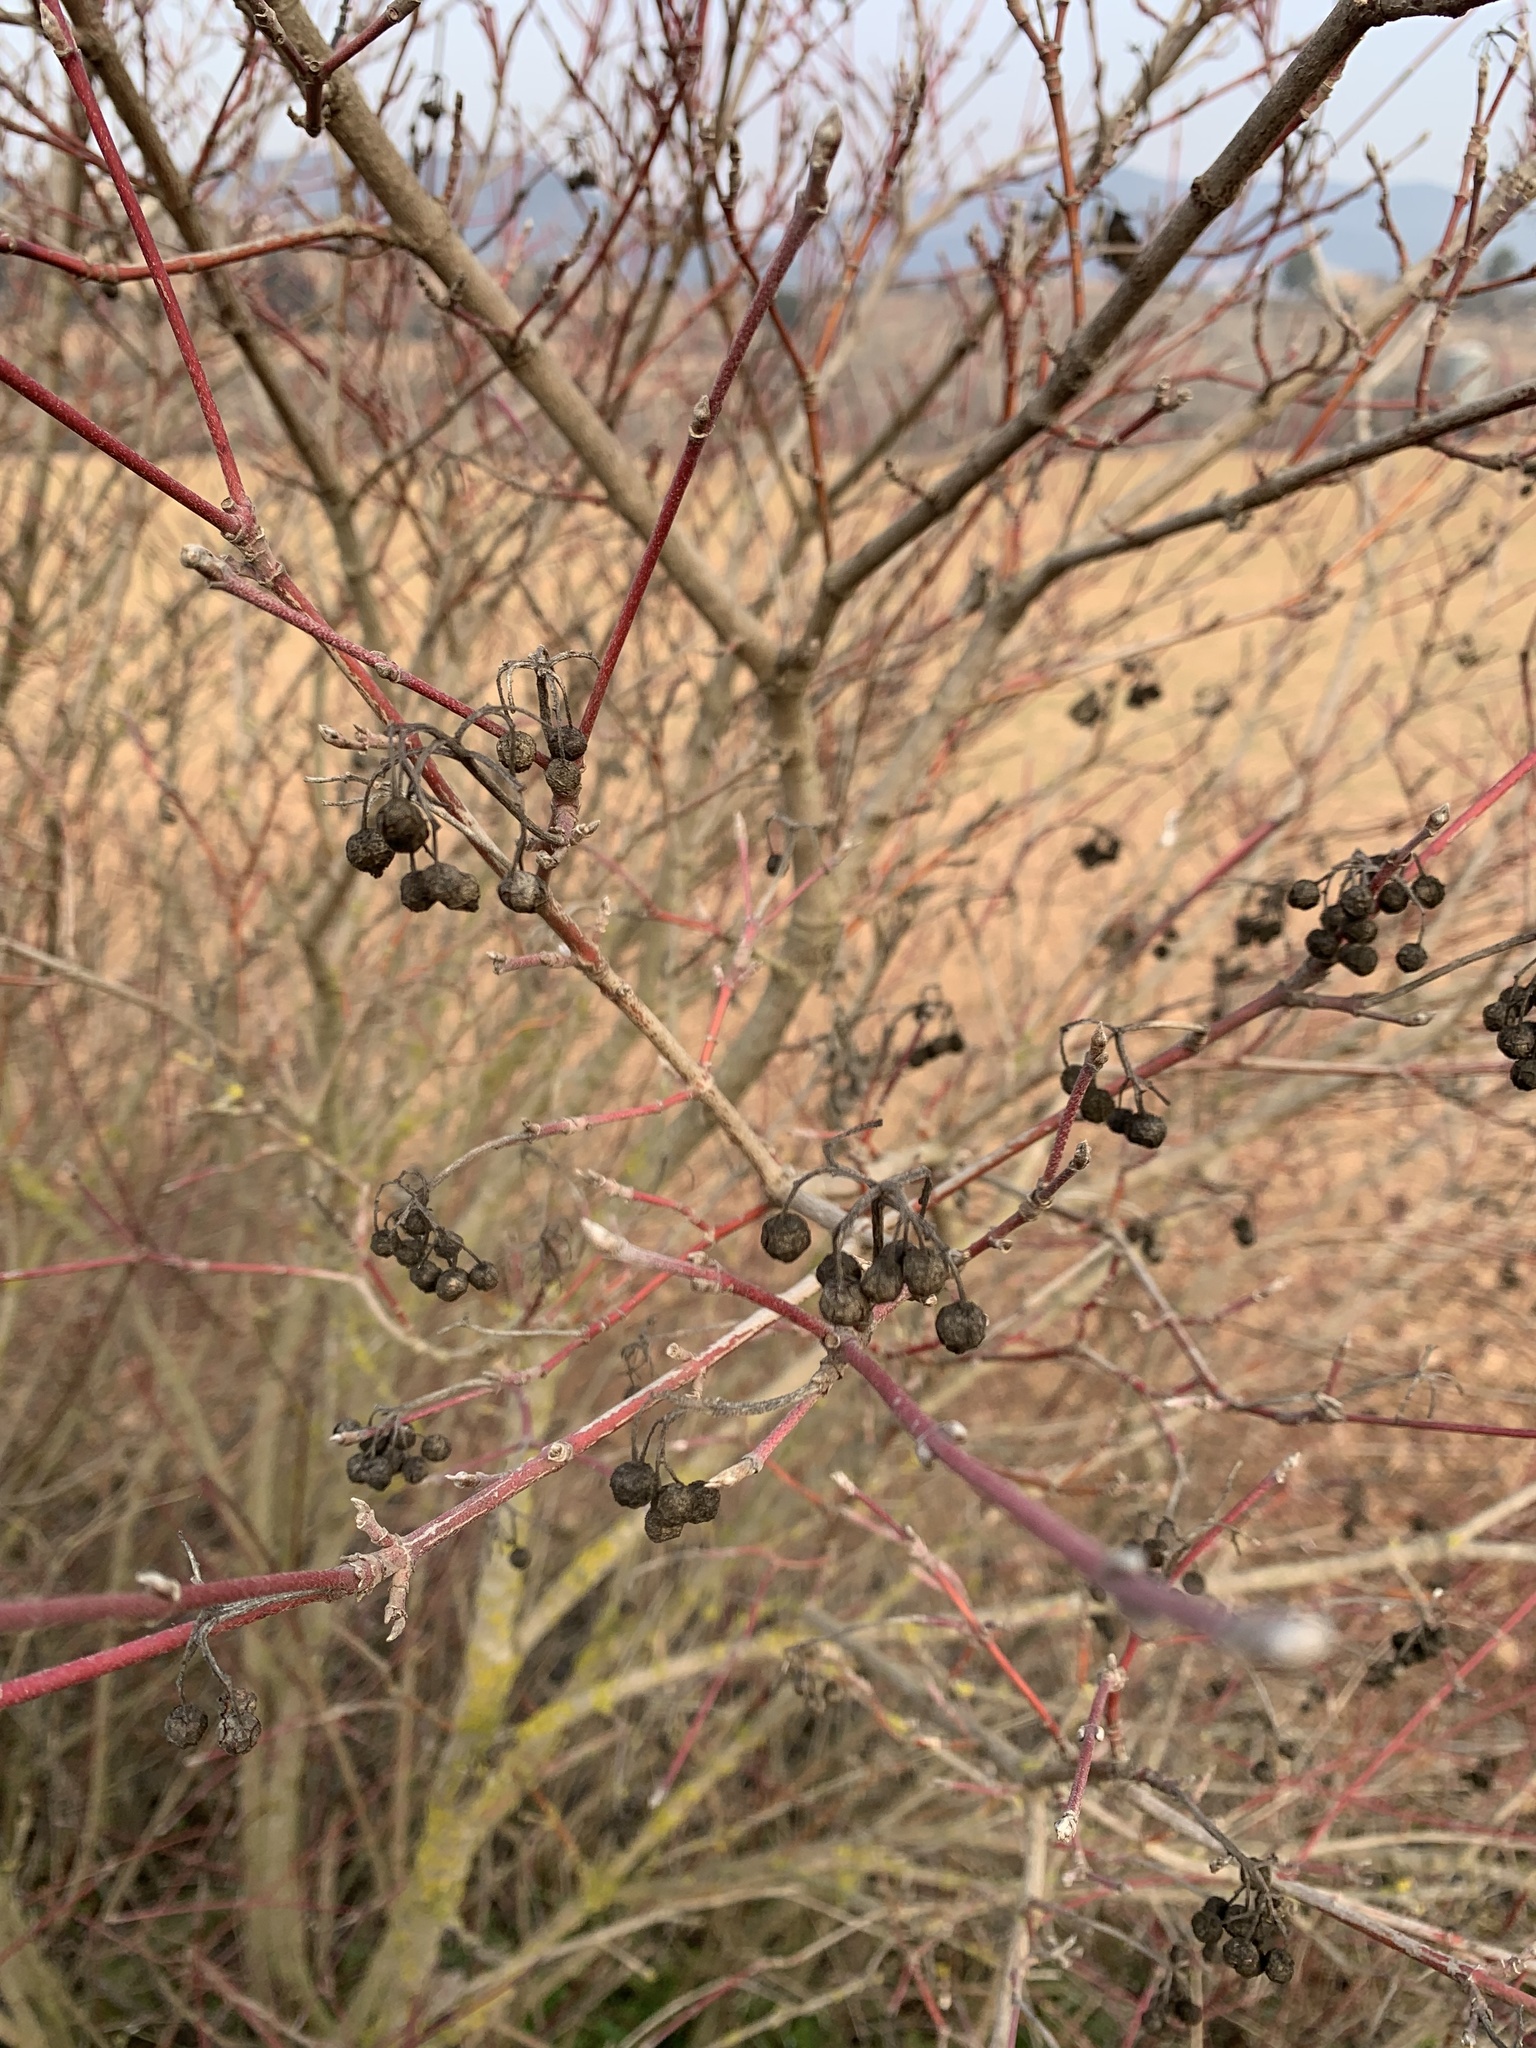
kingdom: Plantae
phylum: Tracheophyta
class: Magnoliopsida
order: Cornales
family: Cornaceae
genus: Cornus
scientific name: Cornus sanguinea
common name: Dogwood
